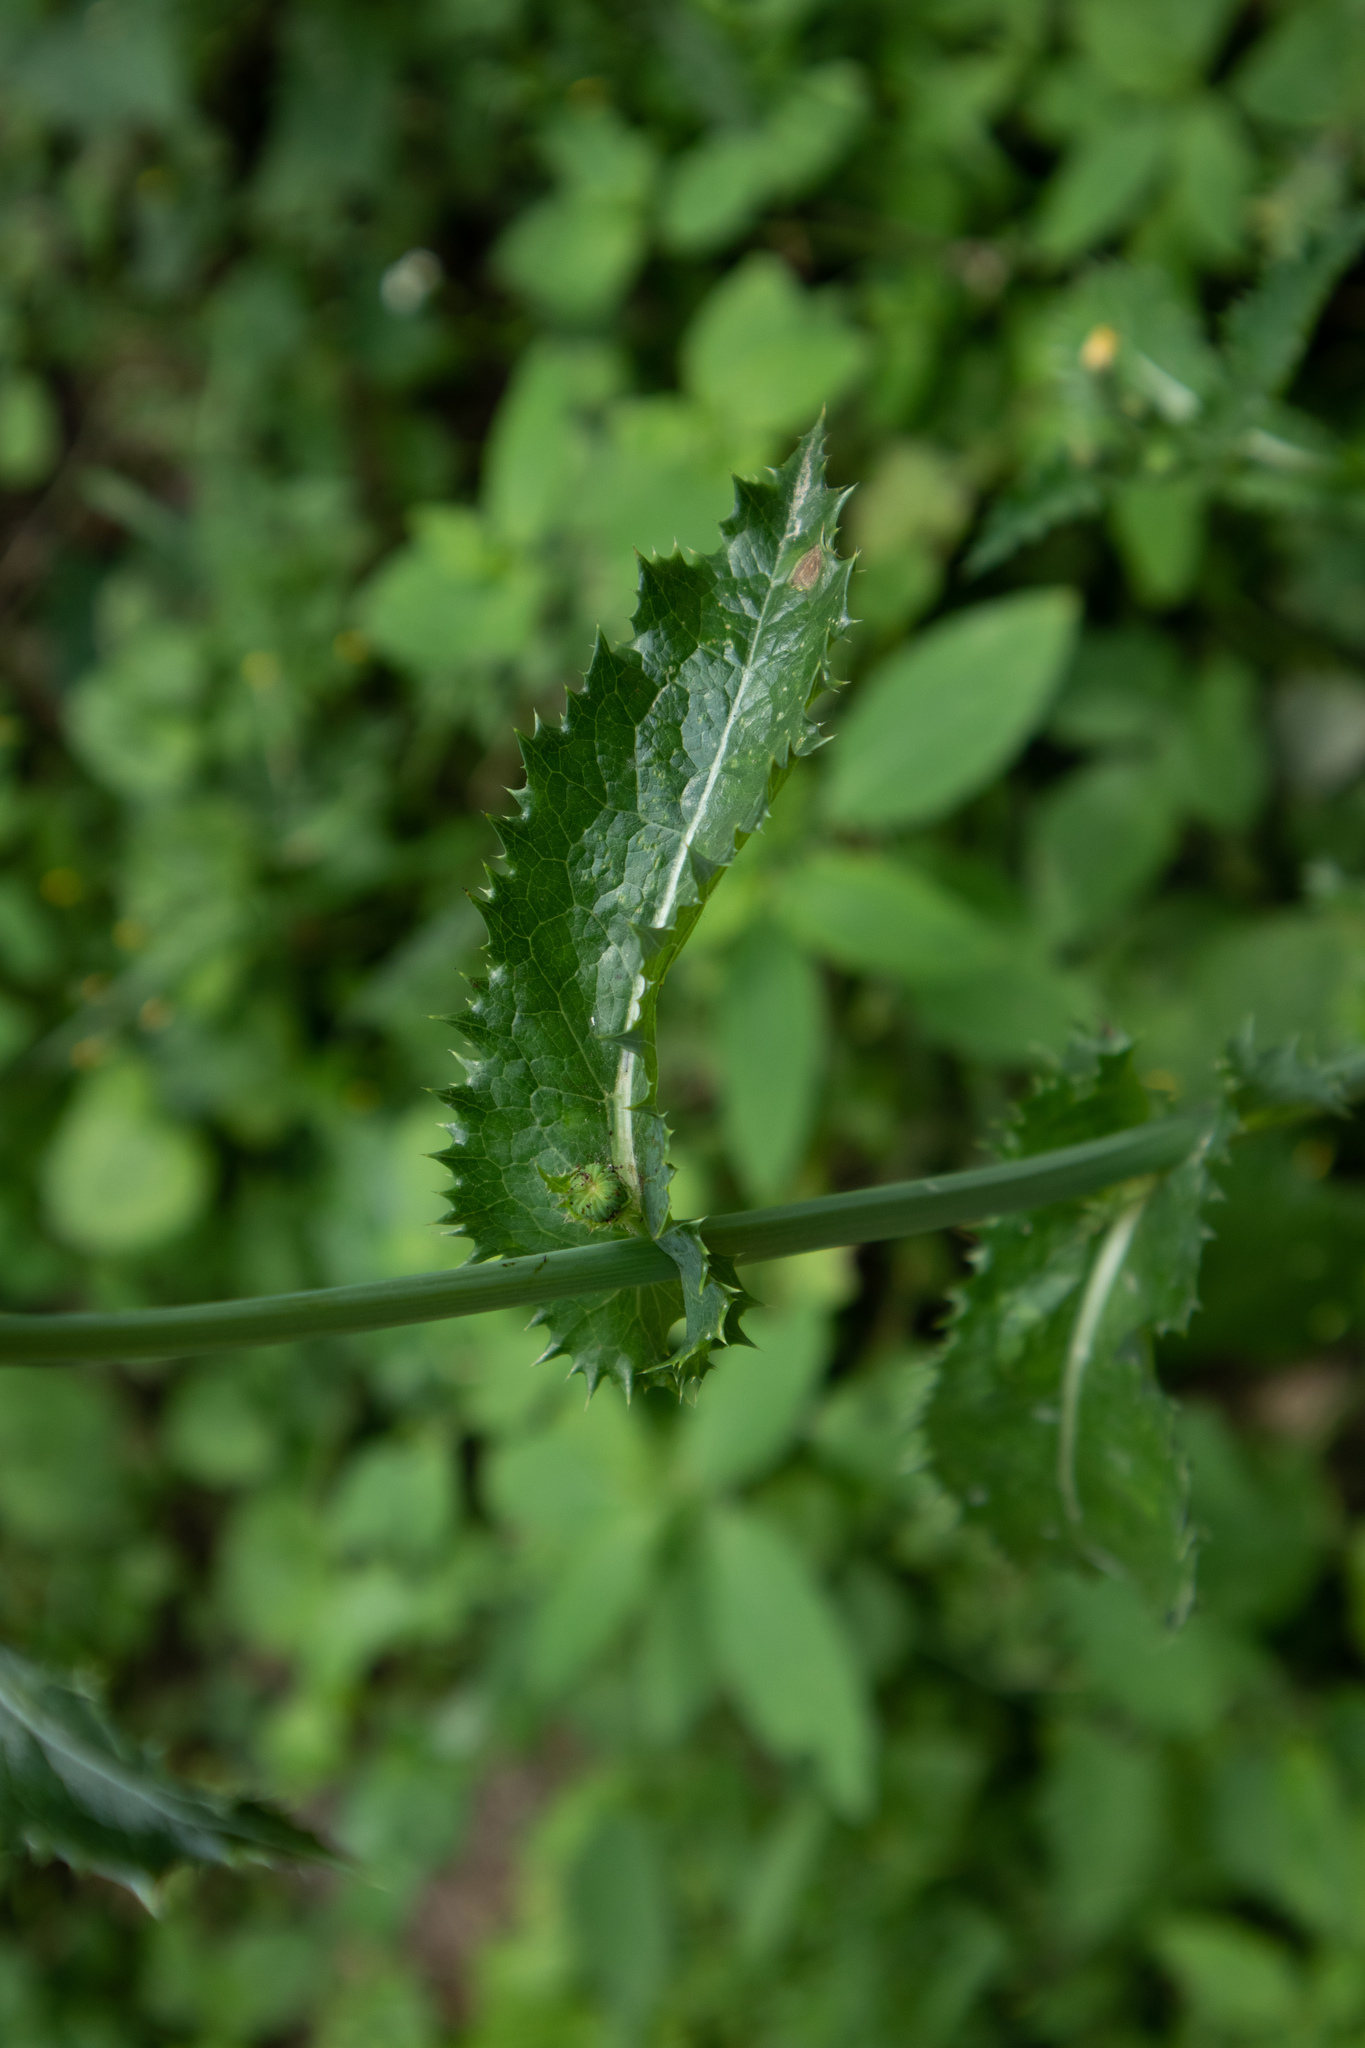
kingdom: Plantae
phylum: Tracheophyta
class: Magnoliopsida
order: Asterales
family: Asteraceae
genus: Sonchus
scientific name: Sonchus asper
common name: Prickly sow-thistle
